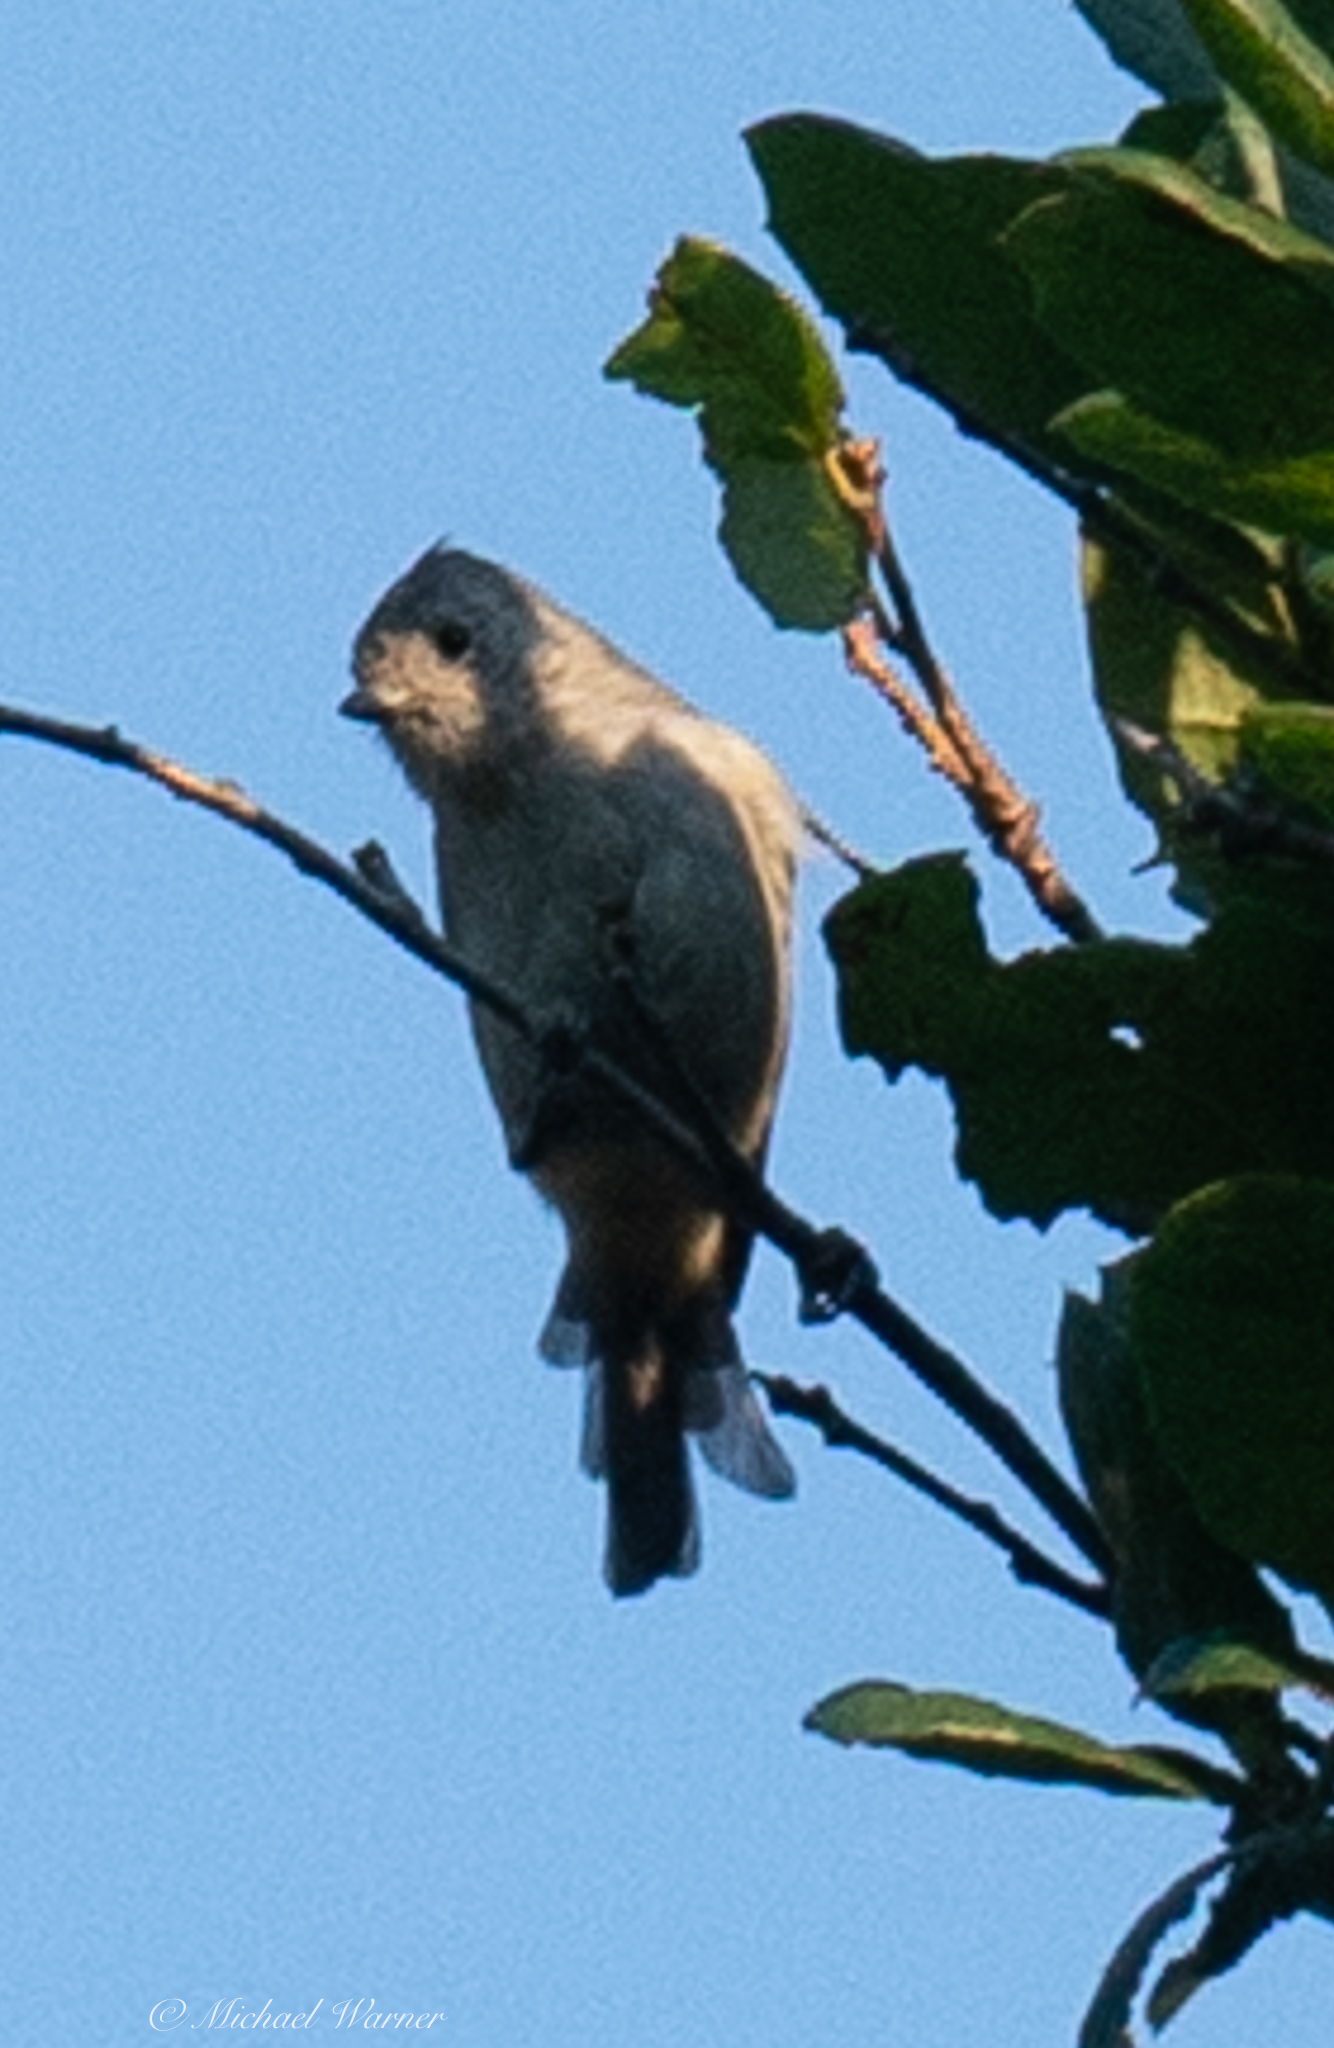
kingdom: Animalia
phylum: Chordata
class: Aves
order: Passeriformes
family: Paridae
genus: Baeolophus
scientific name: Baeolophus inornatus
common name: Oak titmouse
